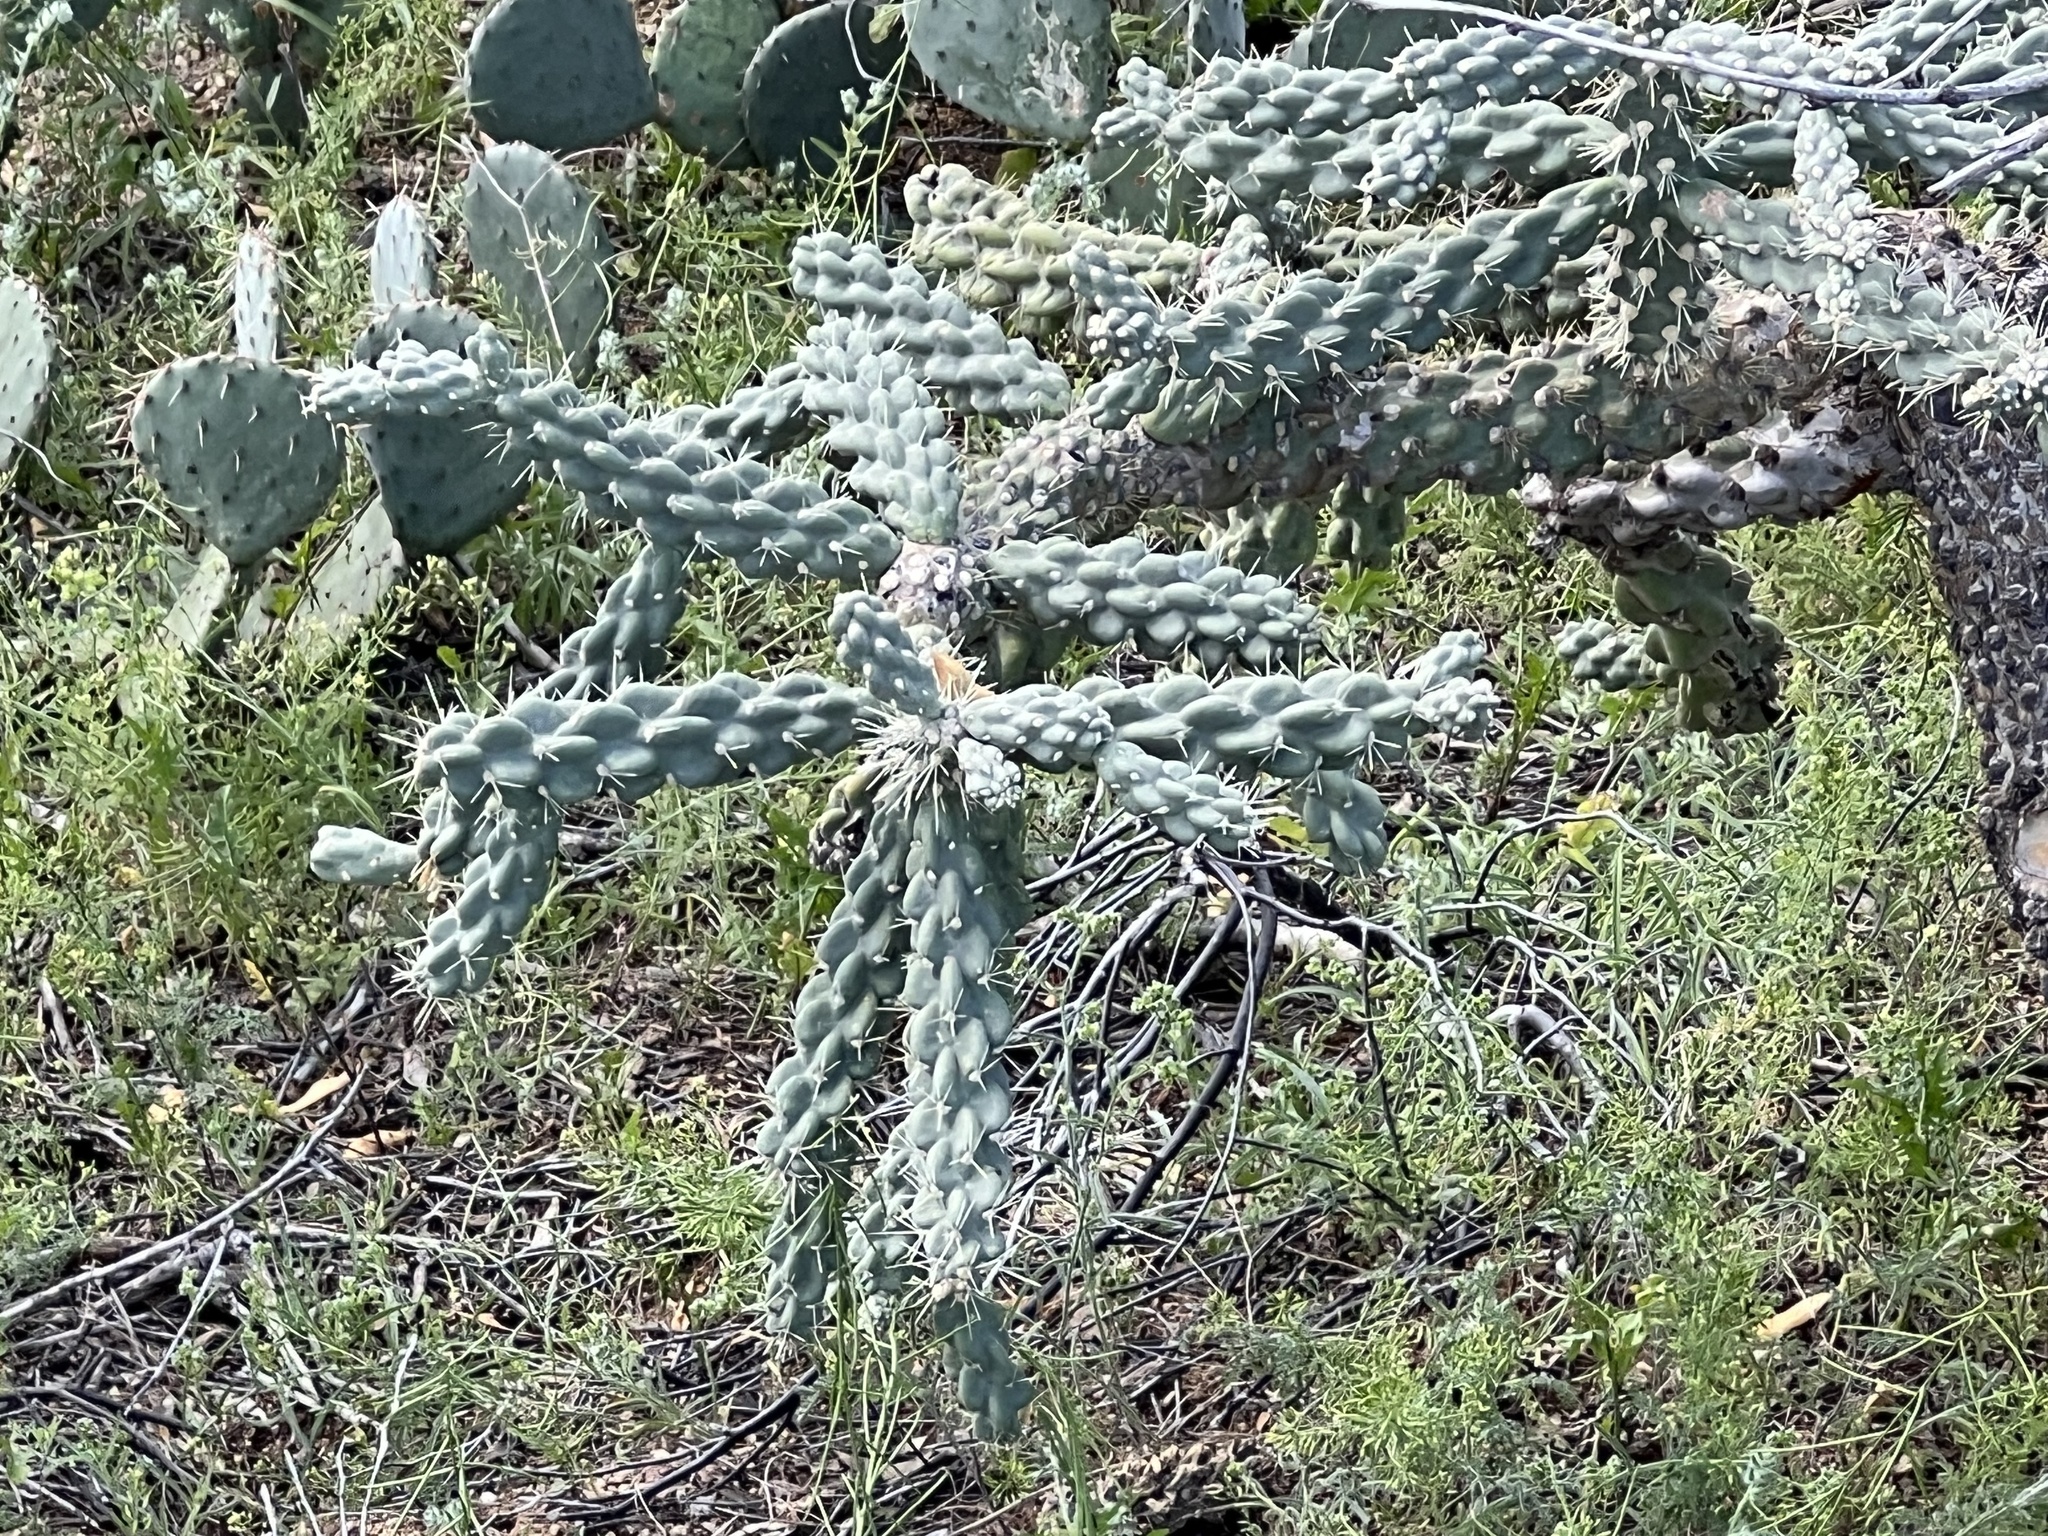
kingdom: Plantae
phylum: Tracheophyta
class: Magnoliopsida
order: Caryophyllales
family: Cactaceae
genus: Cylindropuntia
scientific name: Cylindropuntia fulgida
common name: Jumping cholla
